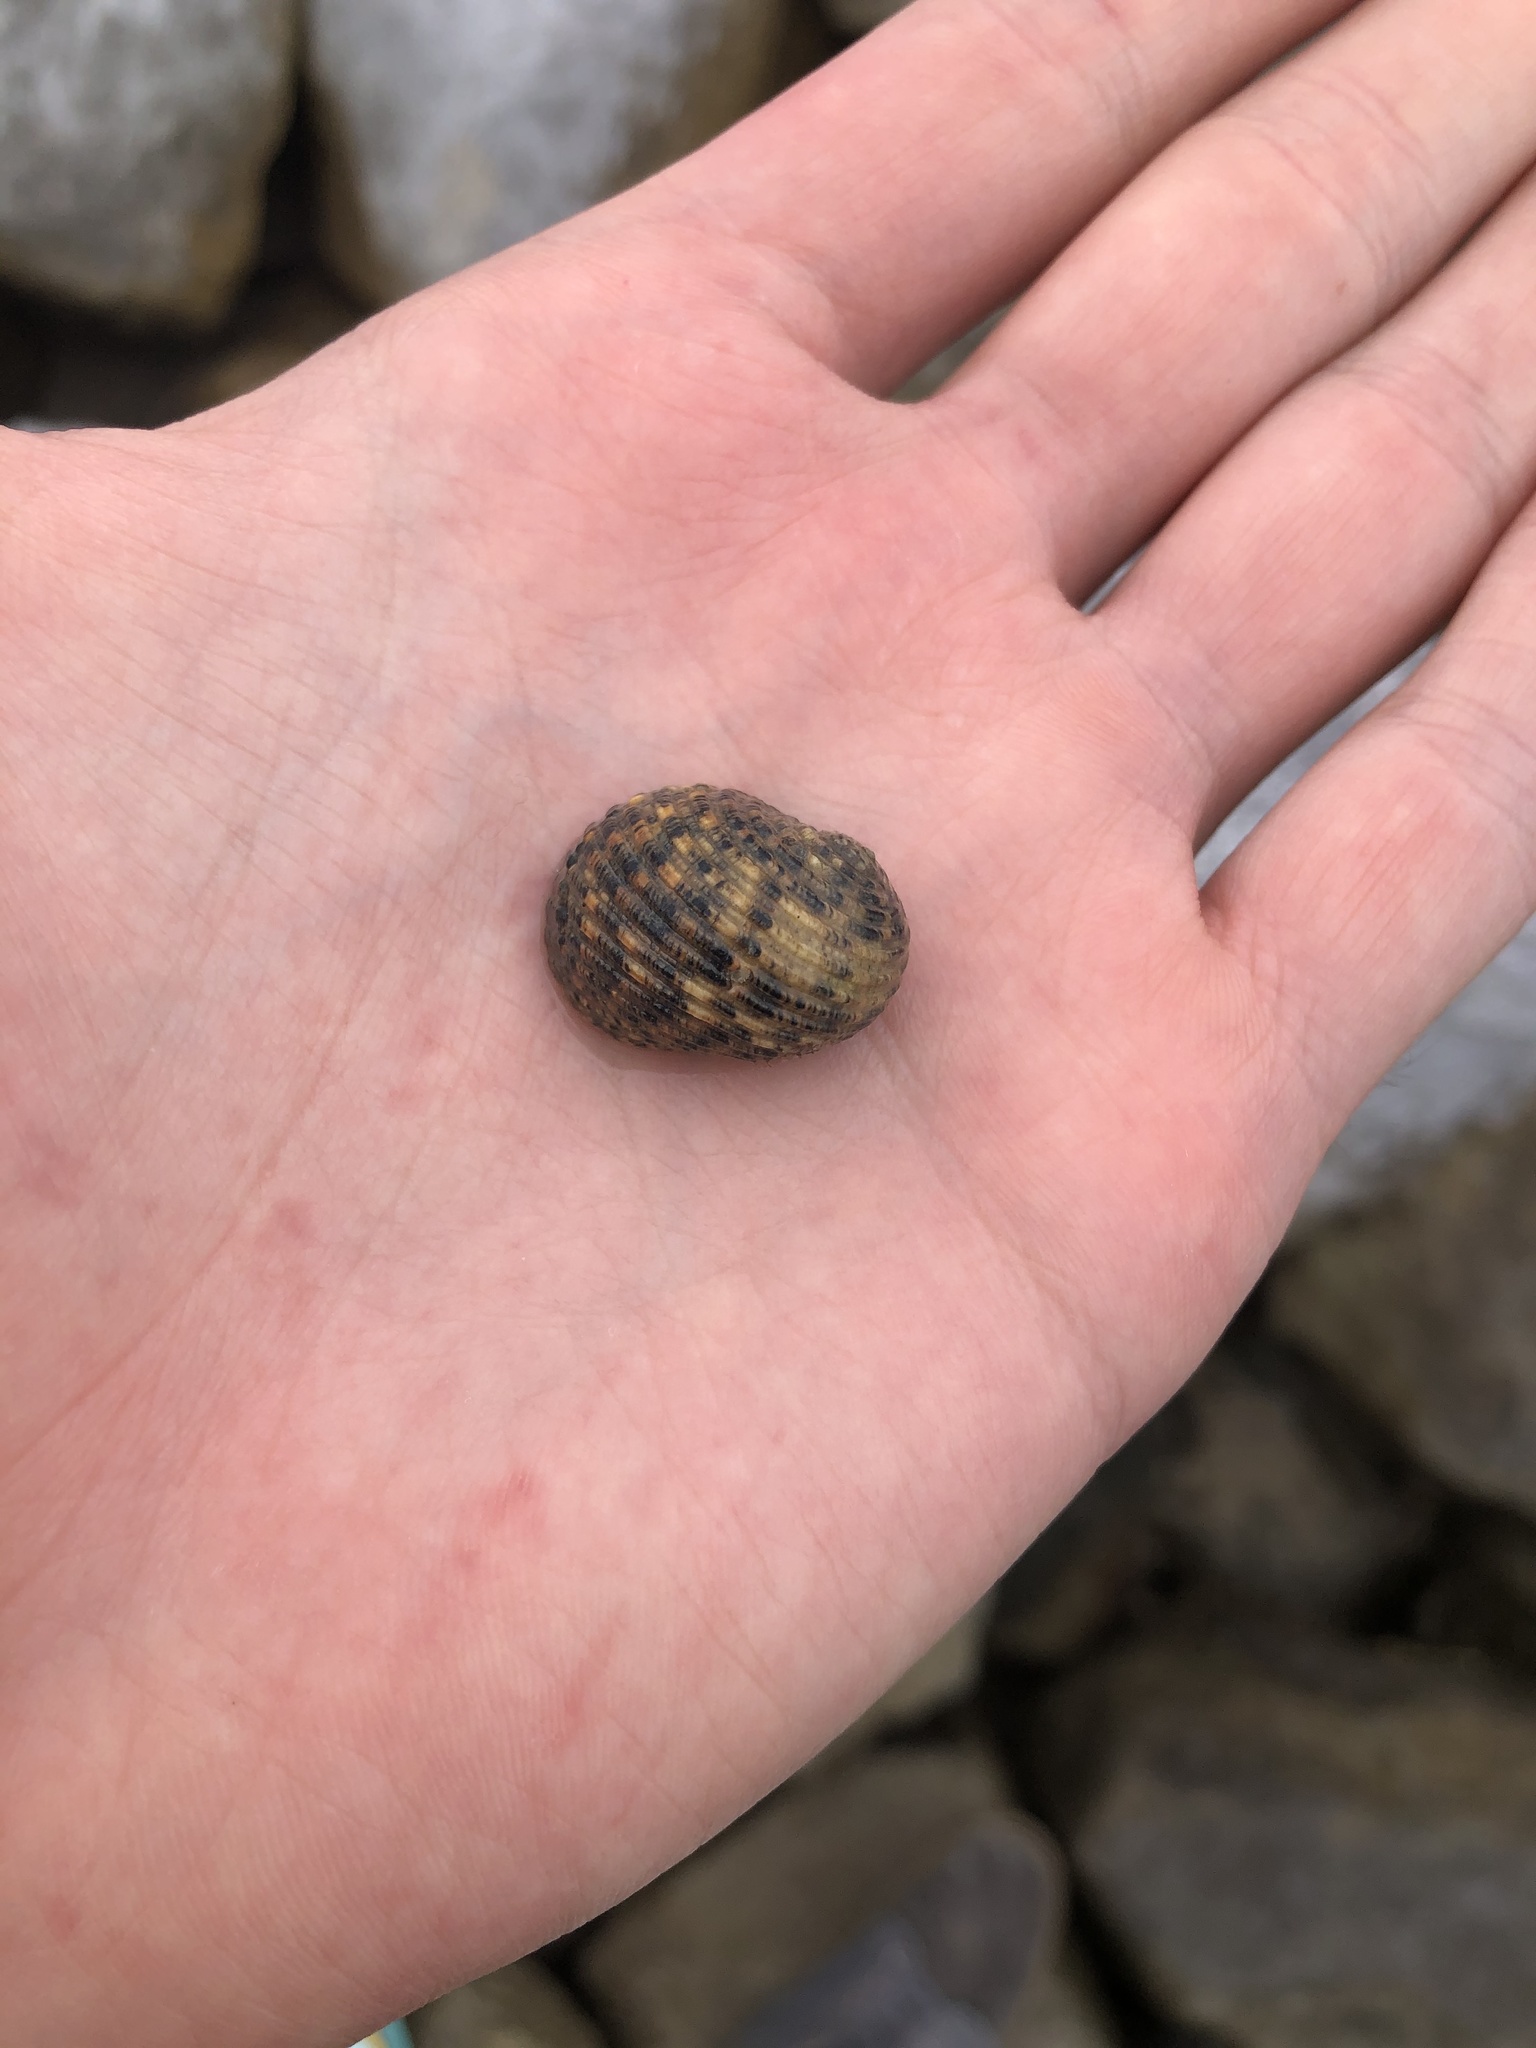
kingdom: Animalia
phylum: Mollusca
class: Gastropoda
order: Cycloneritida
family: Neritidae
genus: Nerita
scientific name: Nerita fulgurans
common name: Antillean nerite
